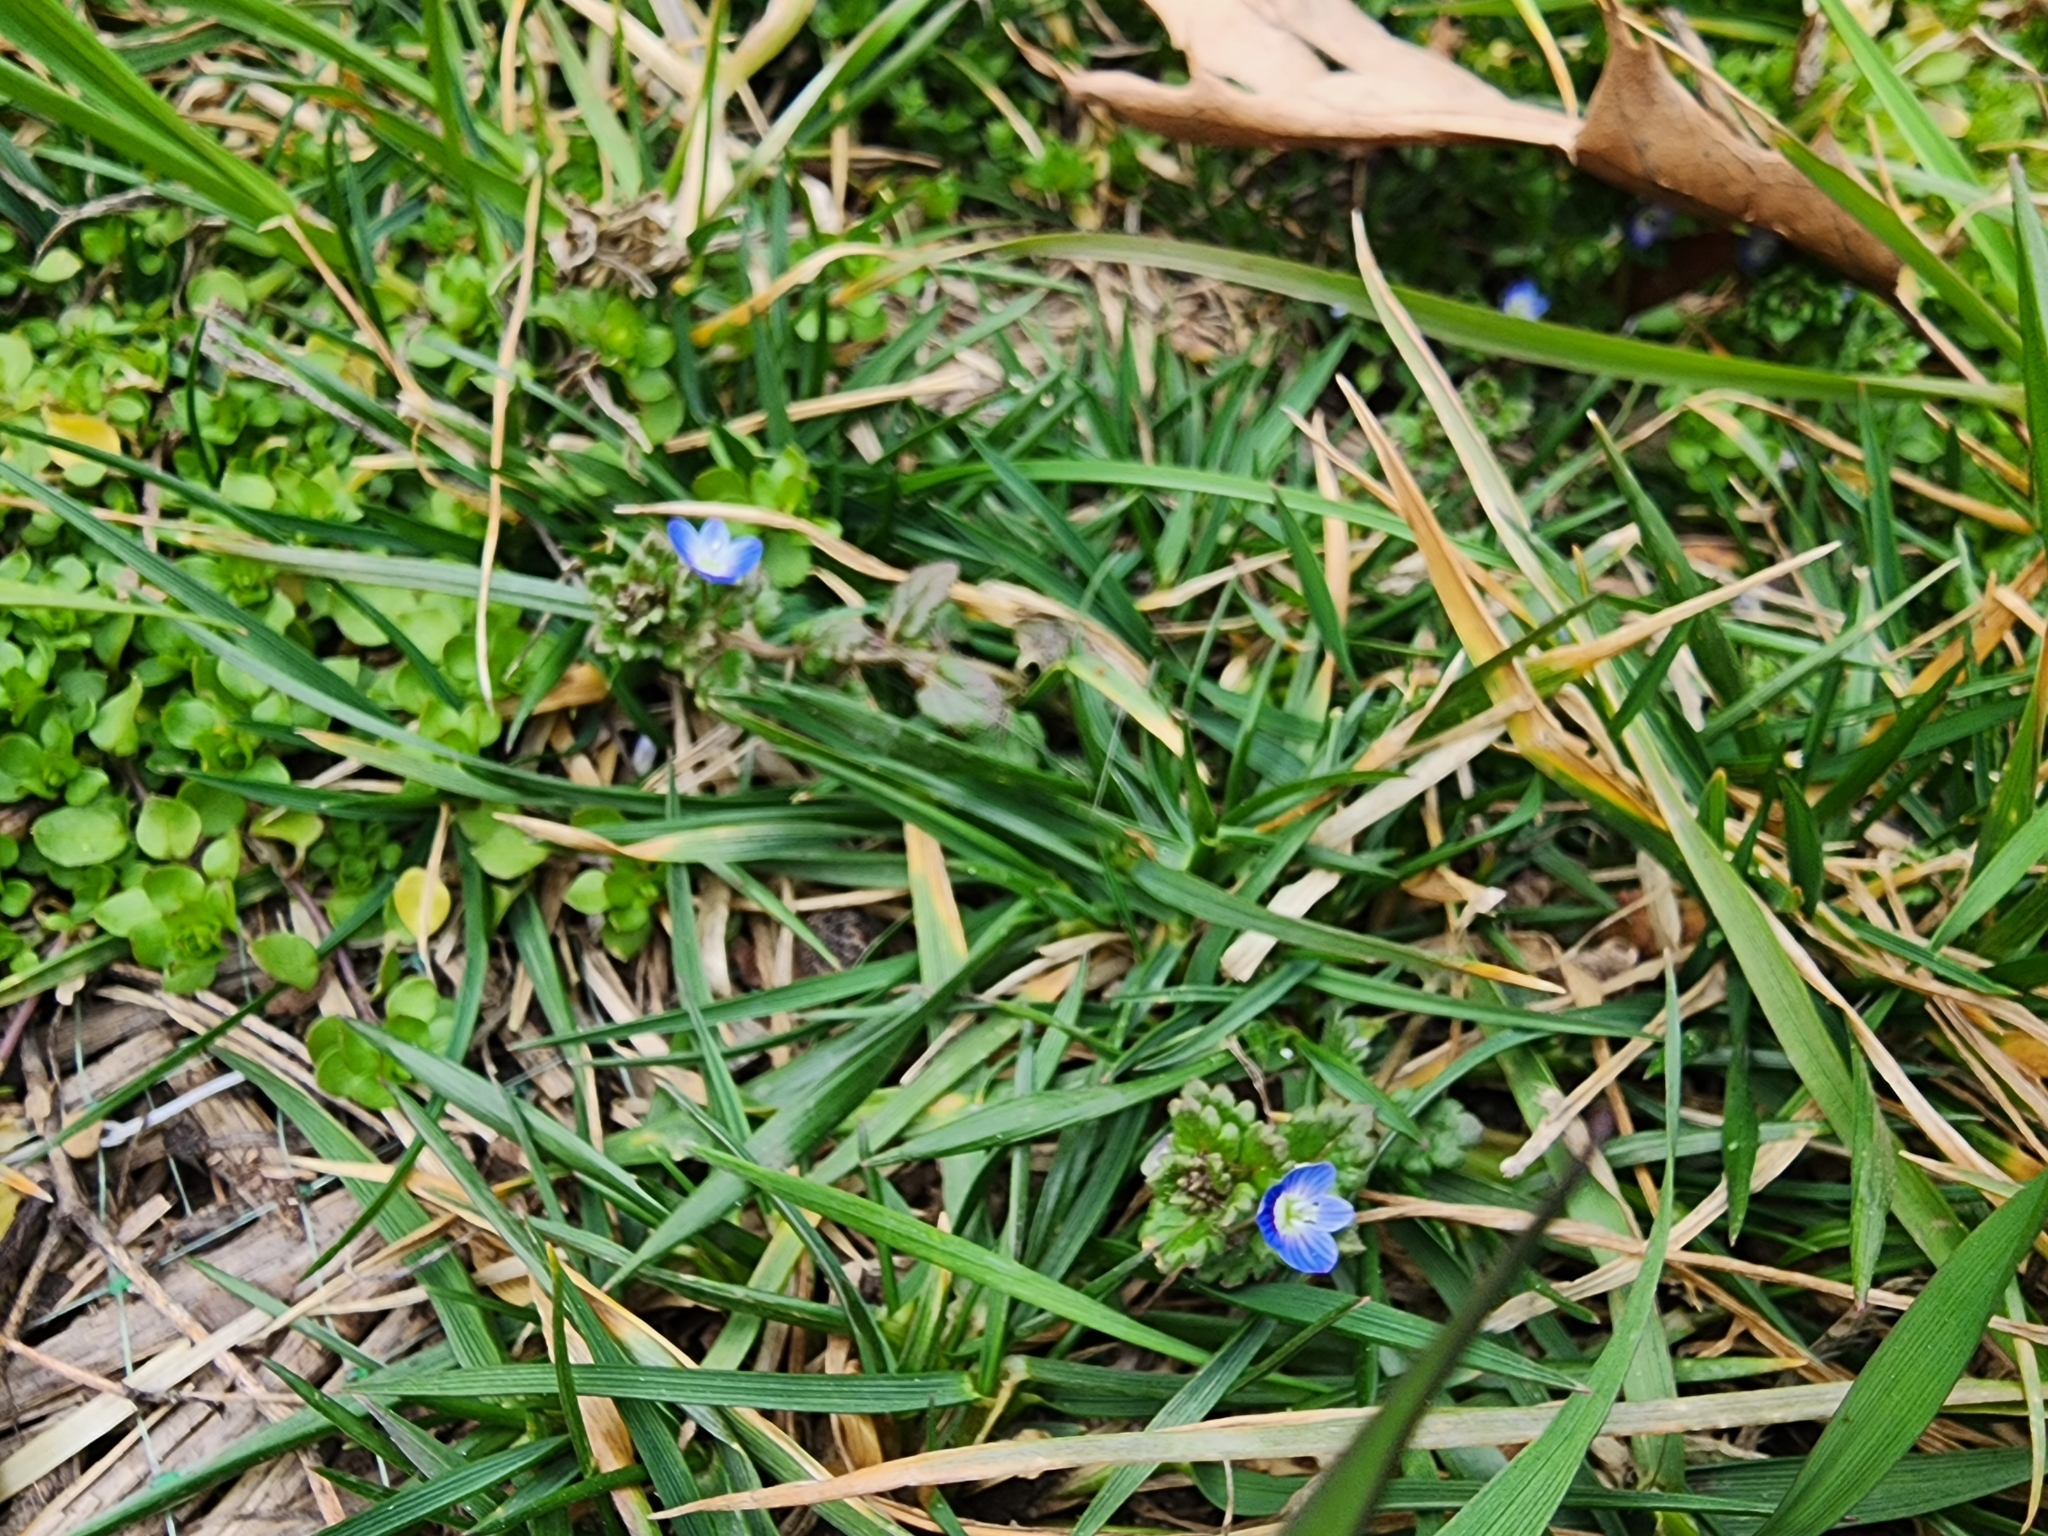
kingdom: Plantae
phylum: Tracheophyta
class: Magnoliopsida
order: Lamiales
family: Plantaginaceae
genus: Veronica
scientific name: Veronica polita
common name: Grey field-speedwell
